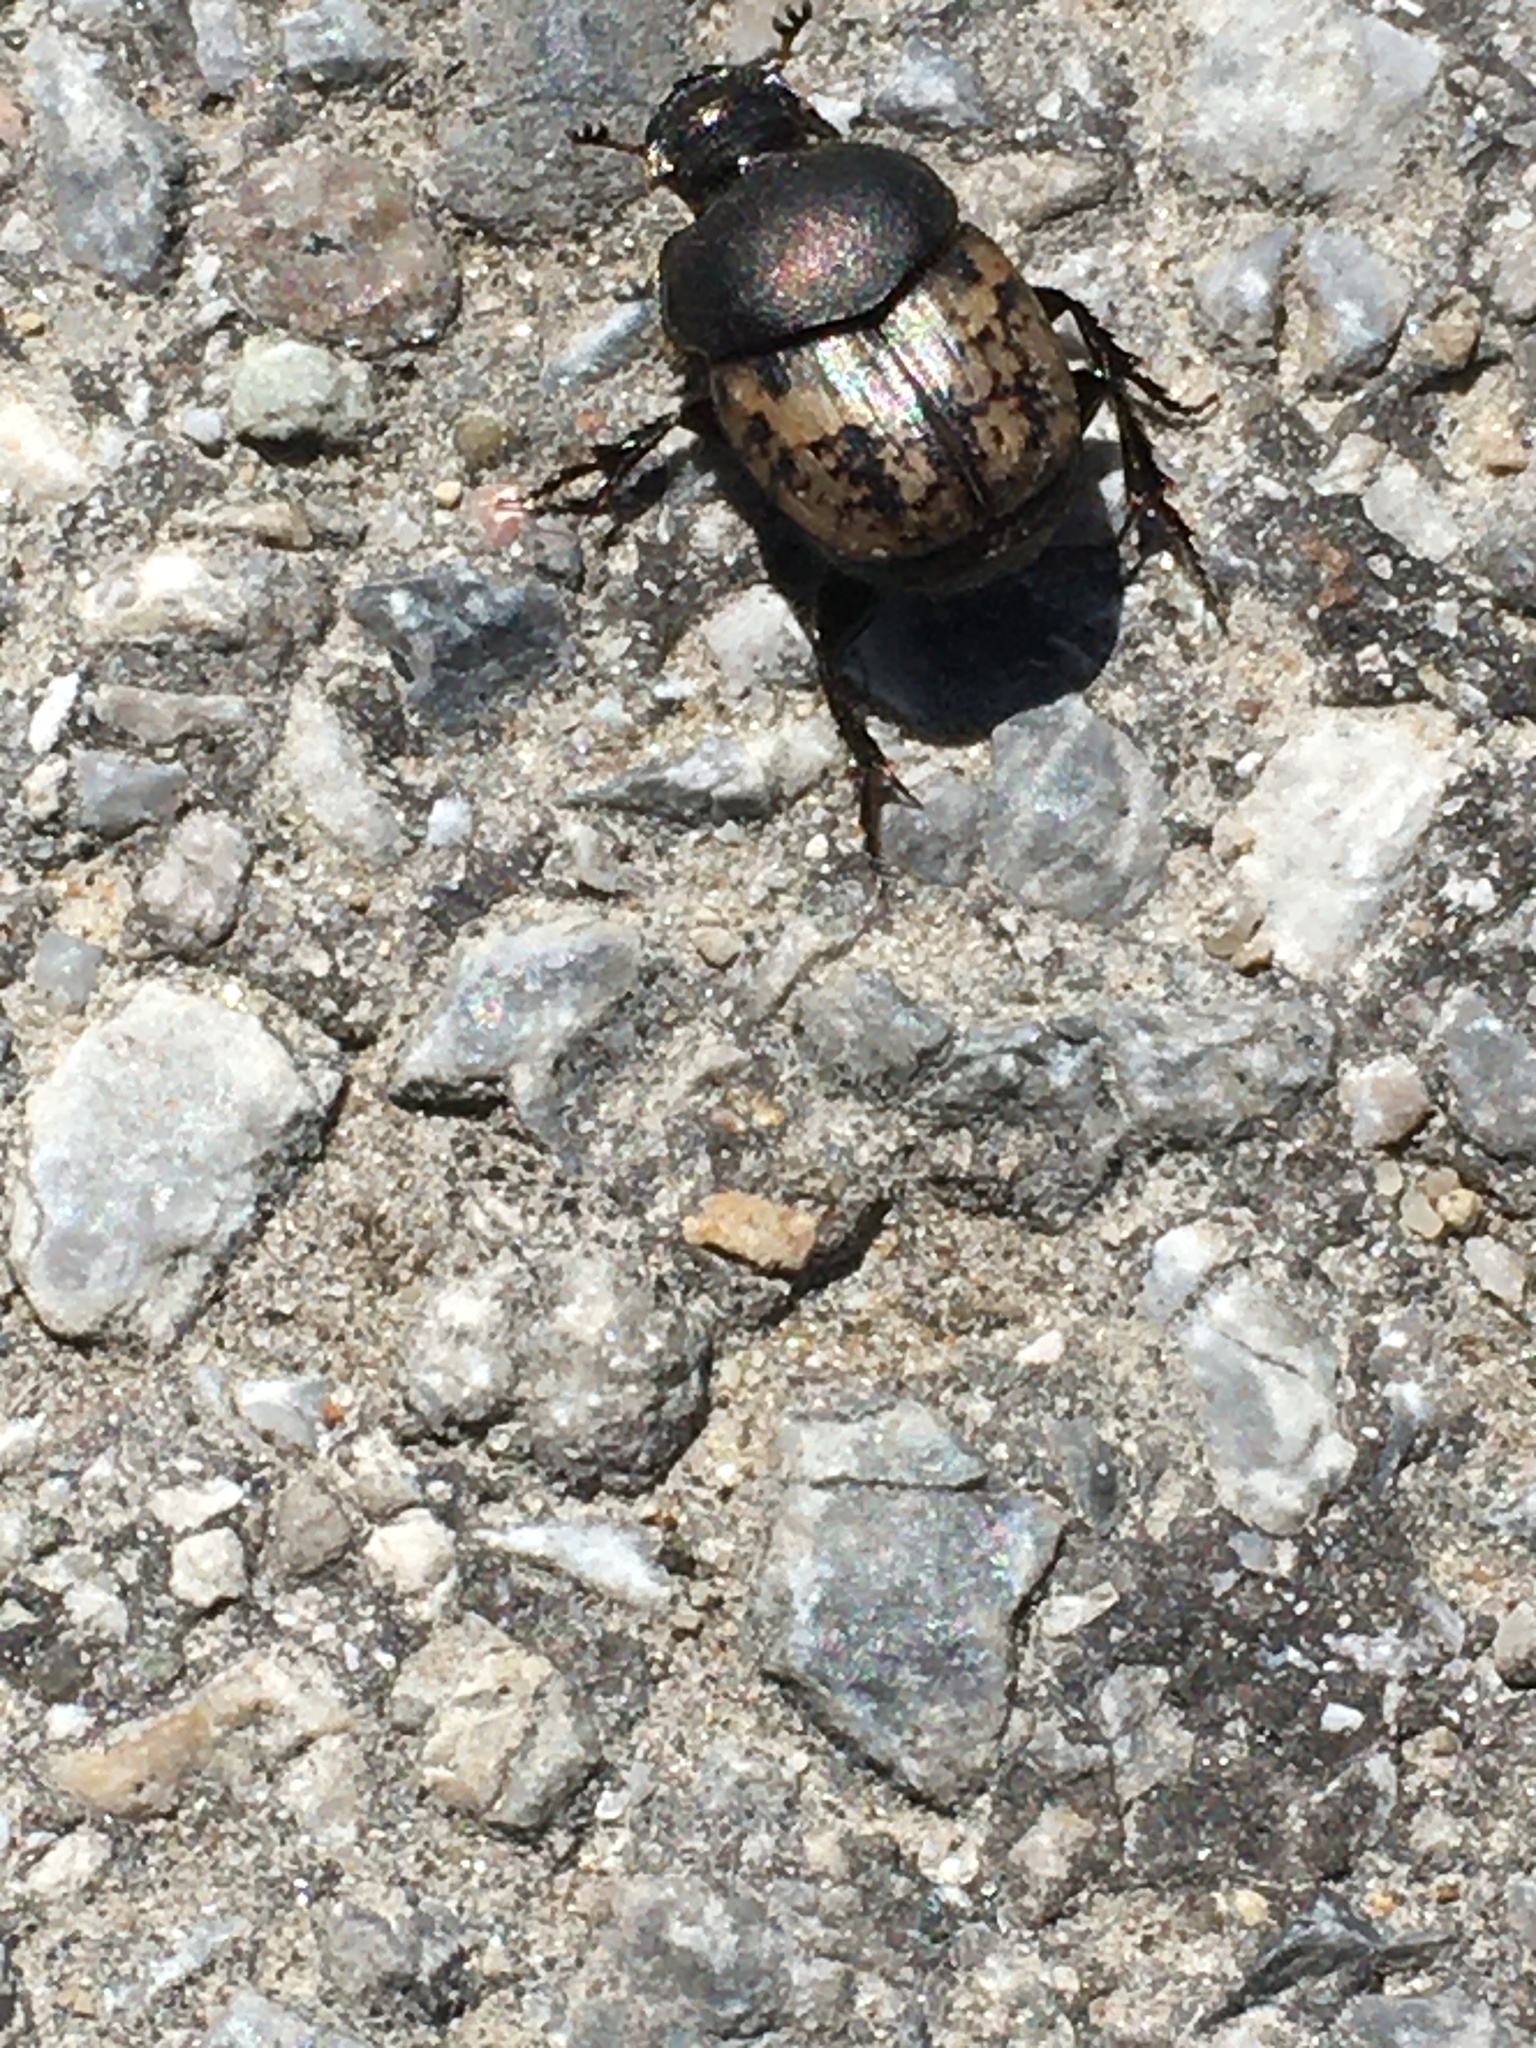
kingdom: Animalia
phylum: Arthropoda
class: Insecta
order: Coleoptera
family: Scarabaeidae
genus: Onthophagus
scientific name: Onthophagus nuchicornis
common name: Mottled dung beetle
